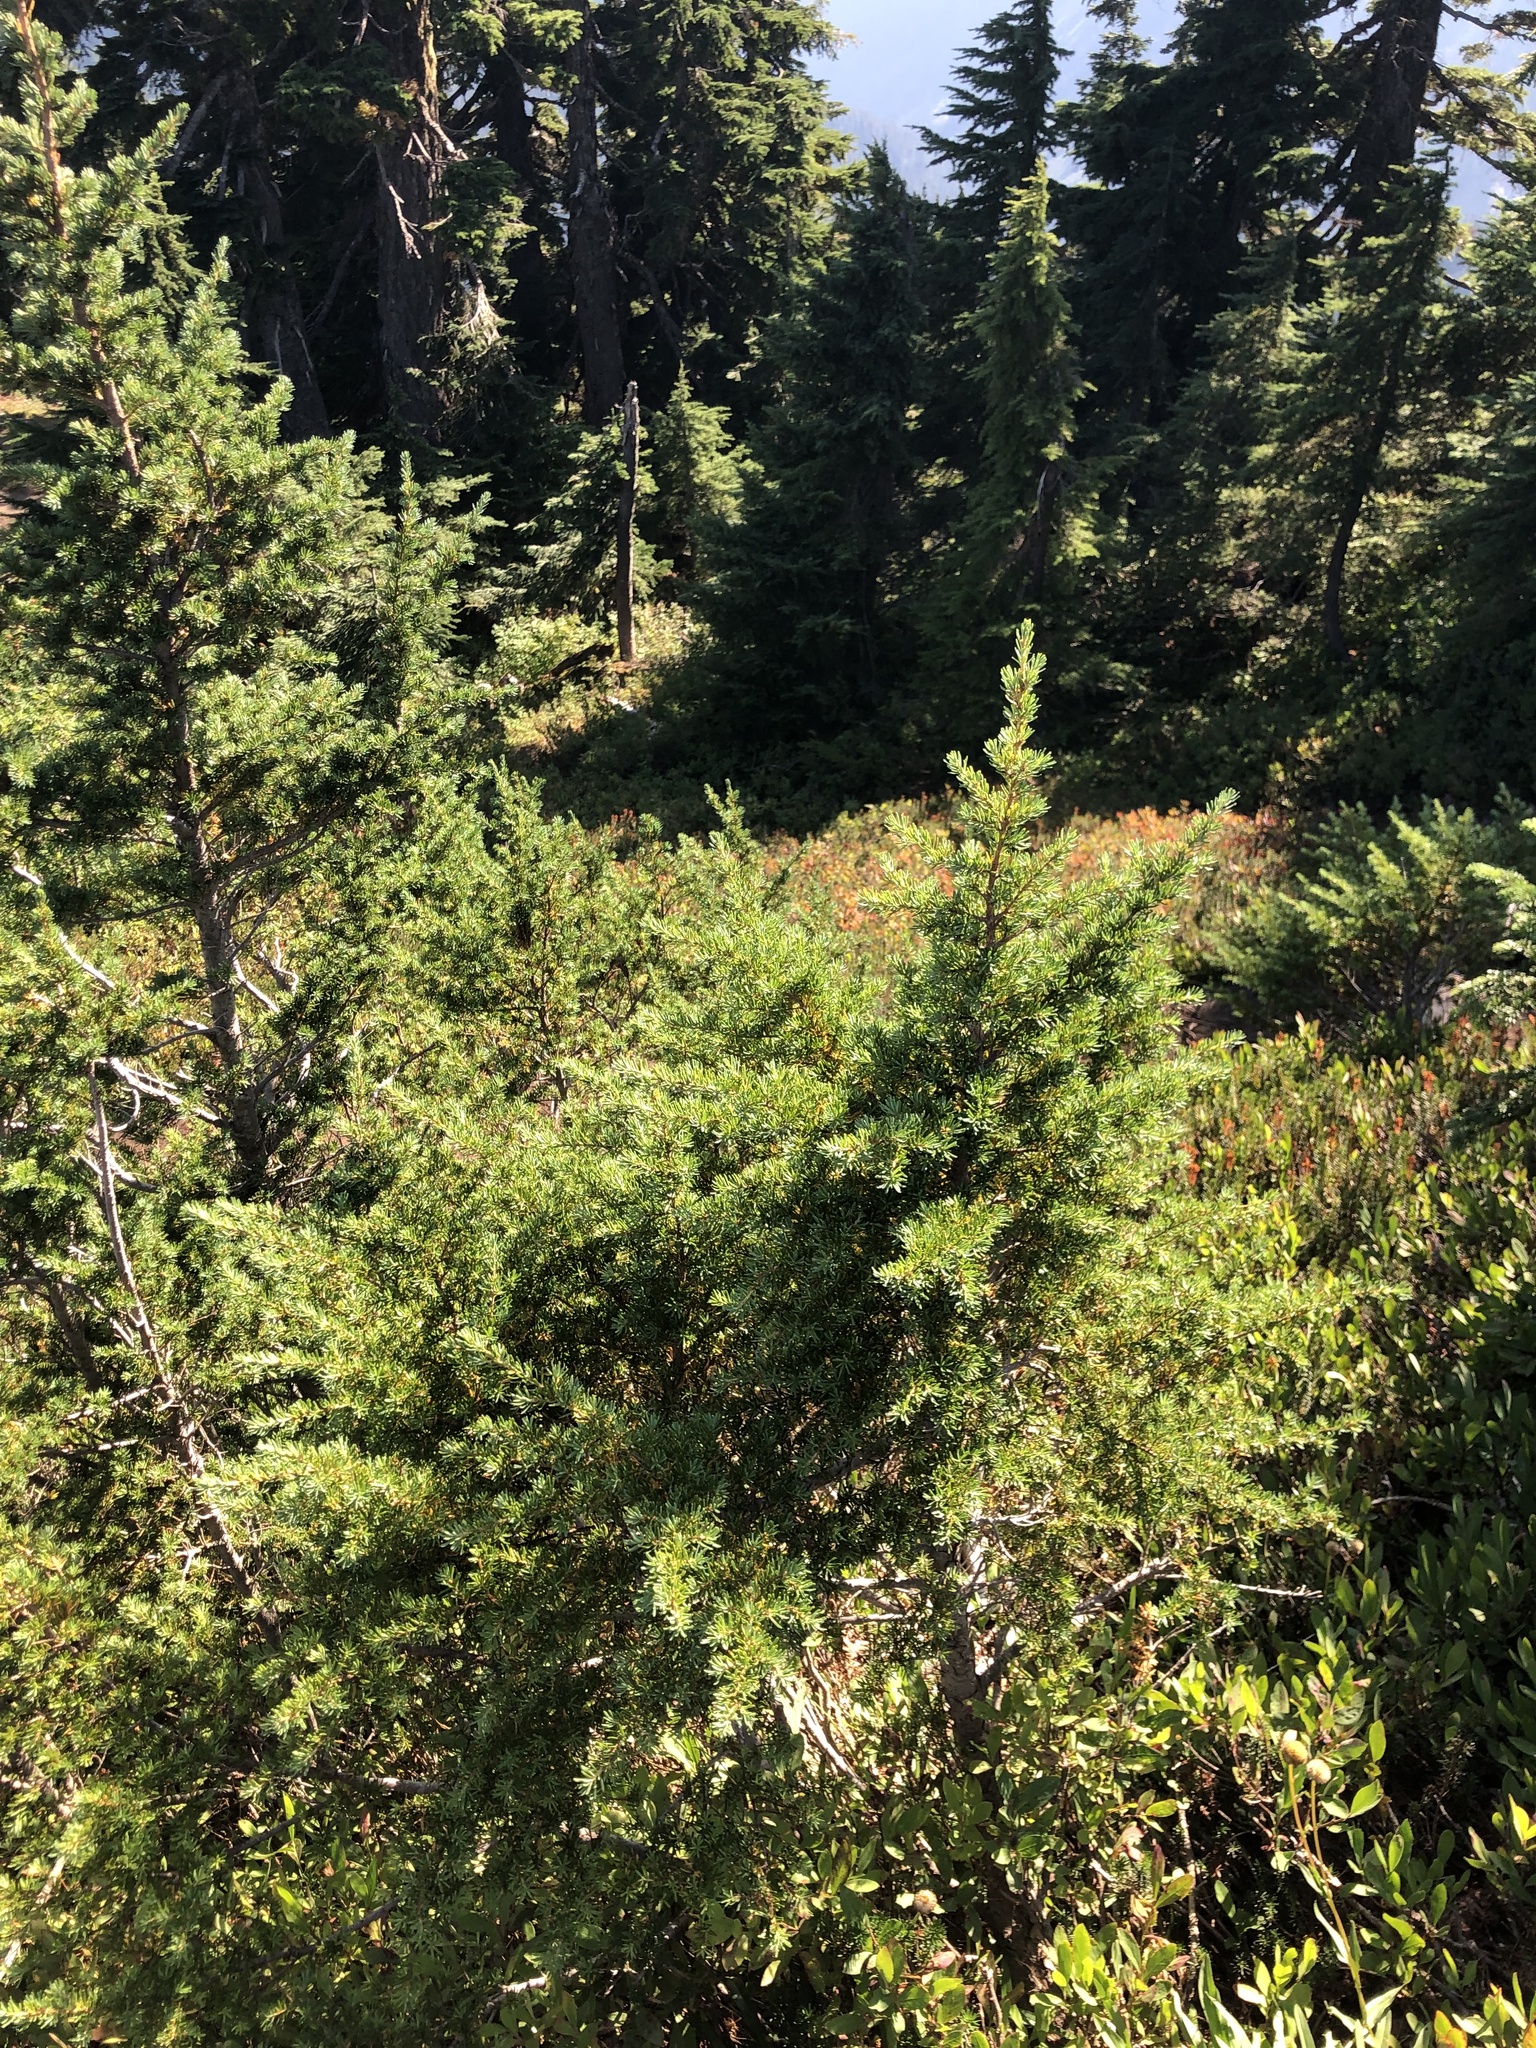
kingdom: Plantae
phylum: Tracheophyta
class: Pinopsida
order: Pinales
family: Pinaceae
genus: Tsuga
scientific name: Tsuga mertensiana
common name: Mountain hemlock
